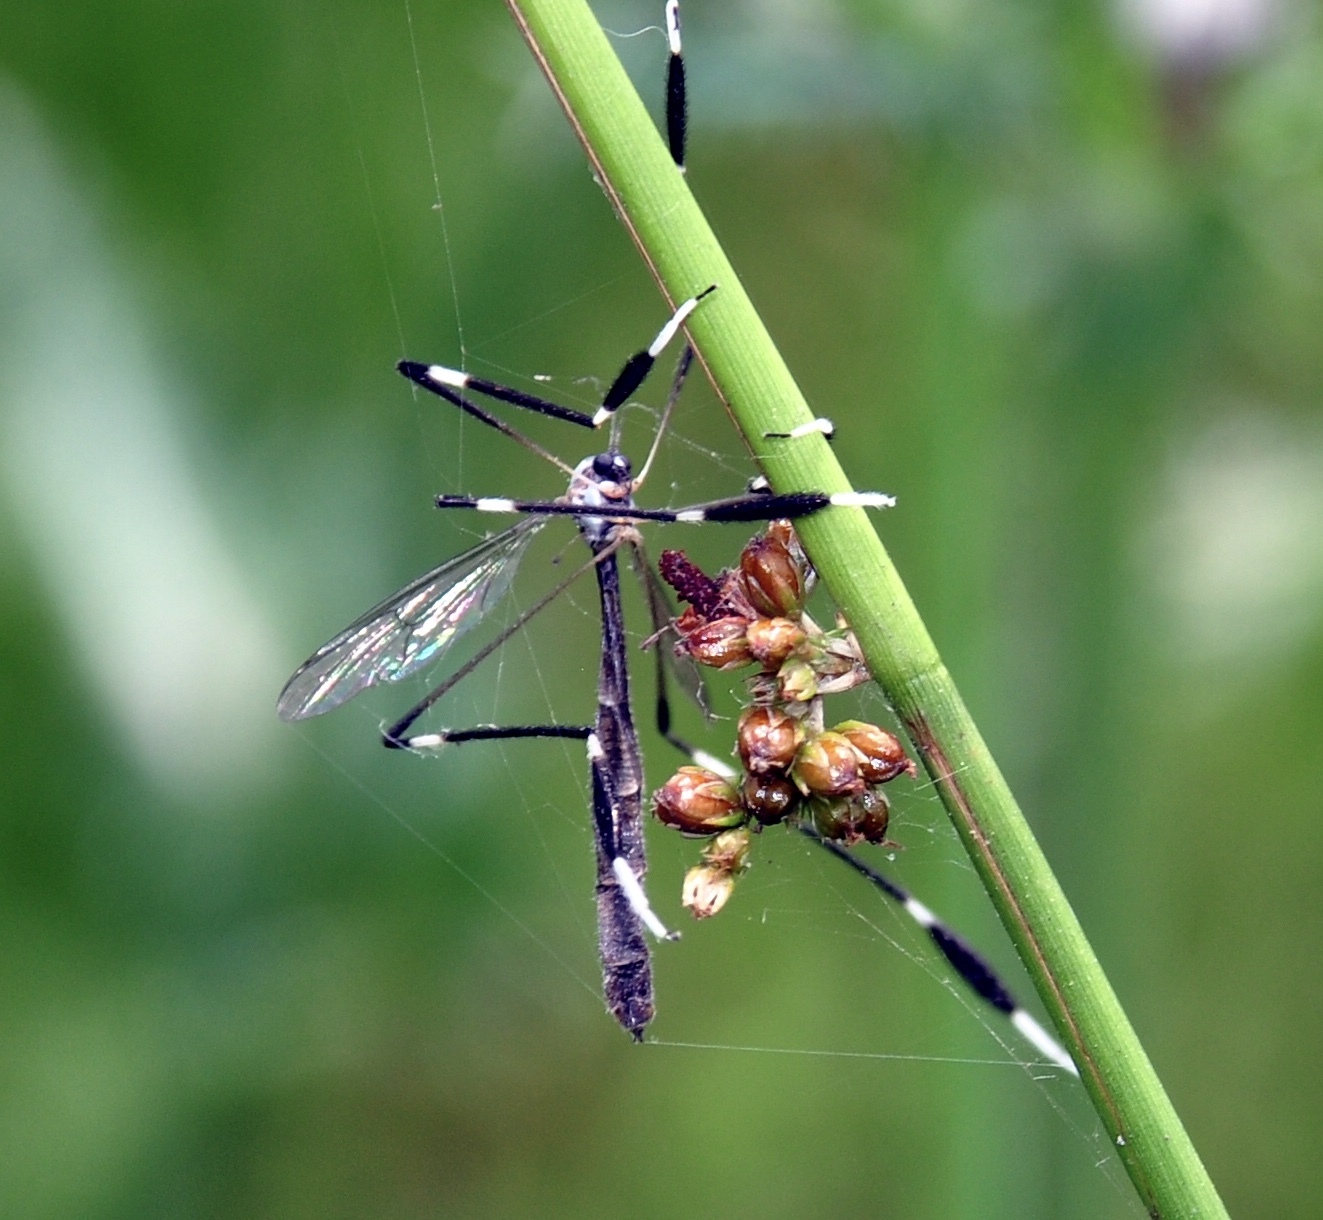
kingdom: Animalia
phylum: Arthropoda
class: Insecta
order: Diptera
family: Ptychopteridae
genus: Bittacomorpha
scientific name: Bittacomorpha clavipes
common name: Eastern phantom crane fly
